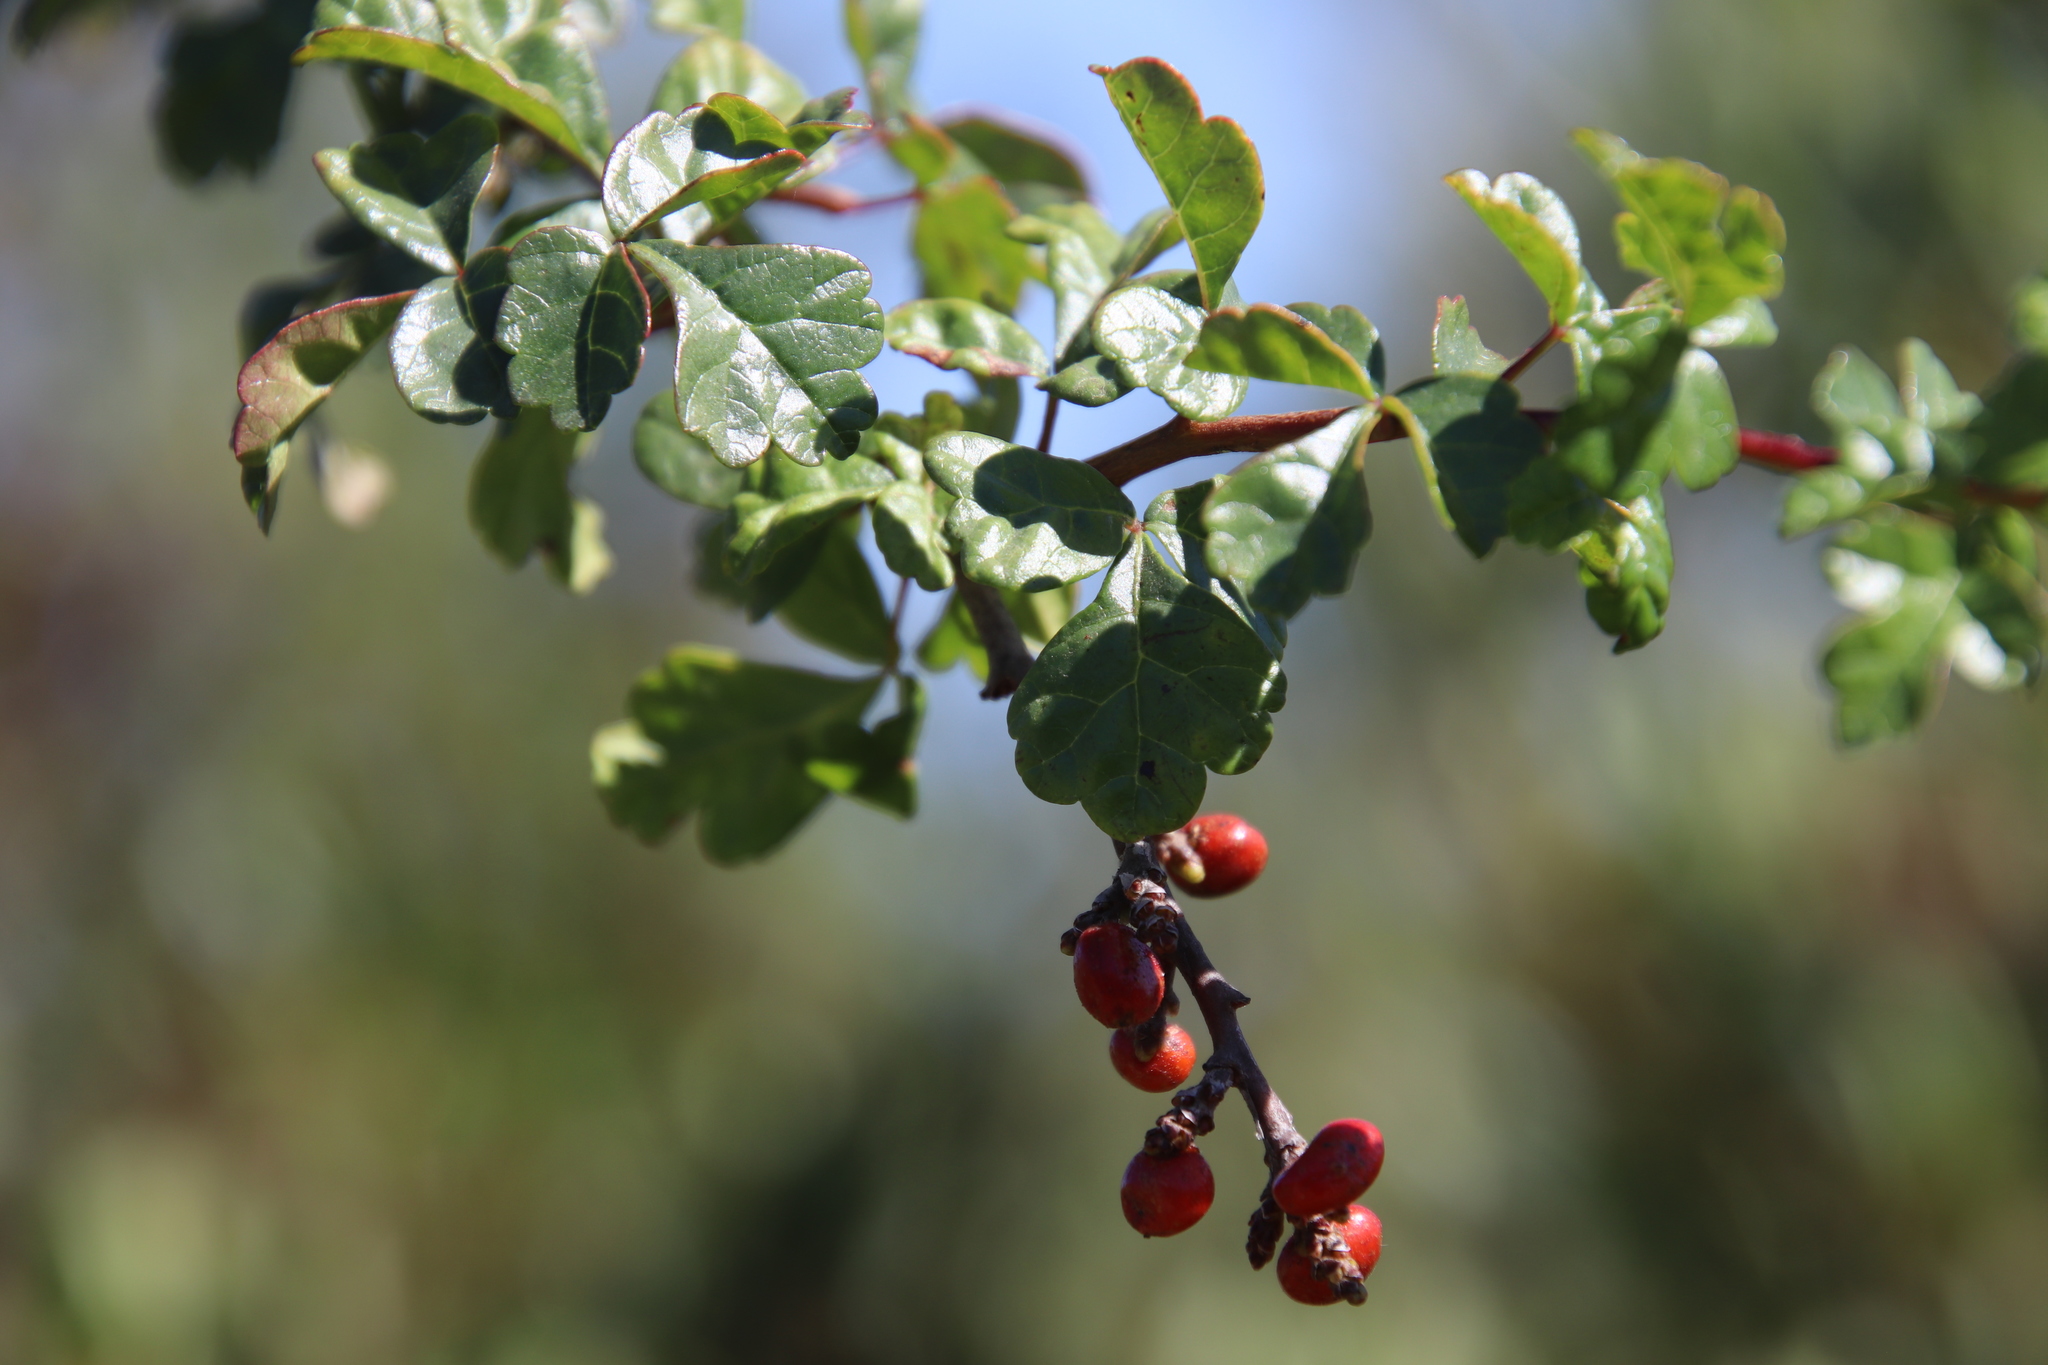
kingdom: Plantae
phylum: Tracheophyta
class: Magnoliopsida
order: Sapindales
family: Anacardiaceae
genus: Rhus
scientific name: Rhus aromatica
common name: Aromatic sumac
